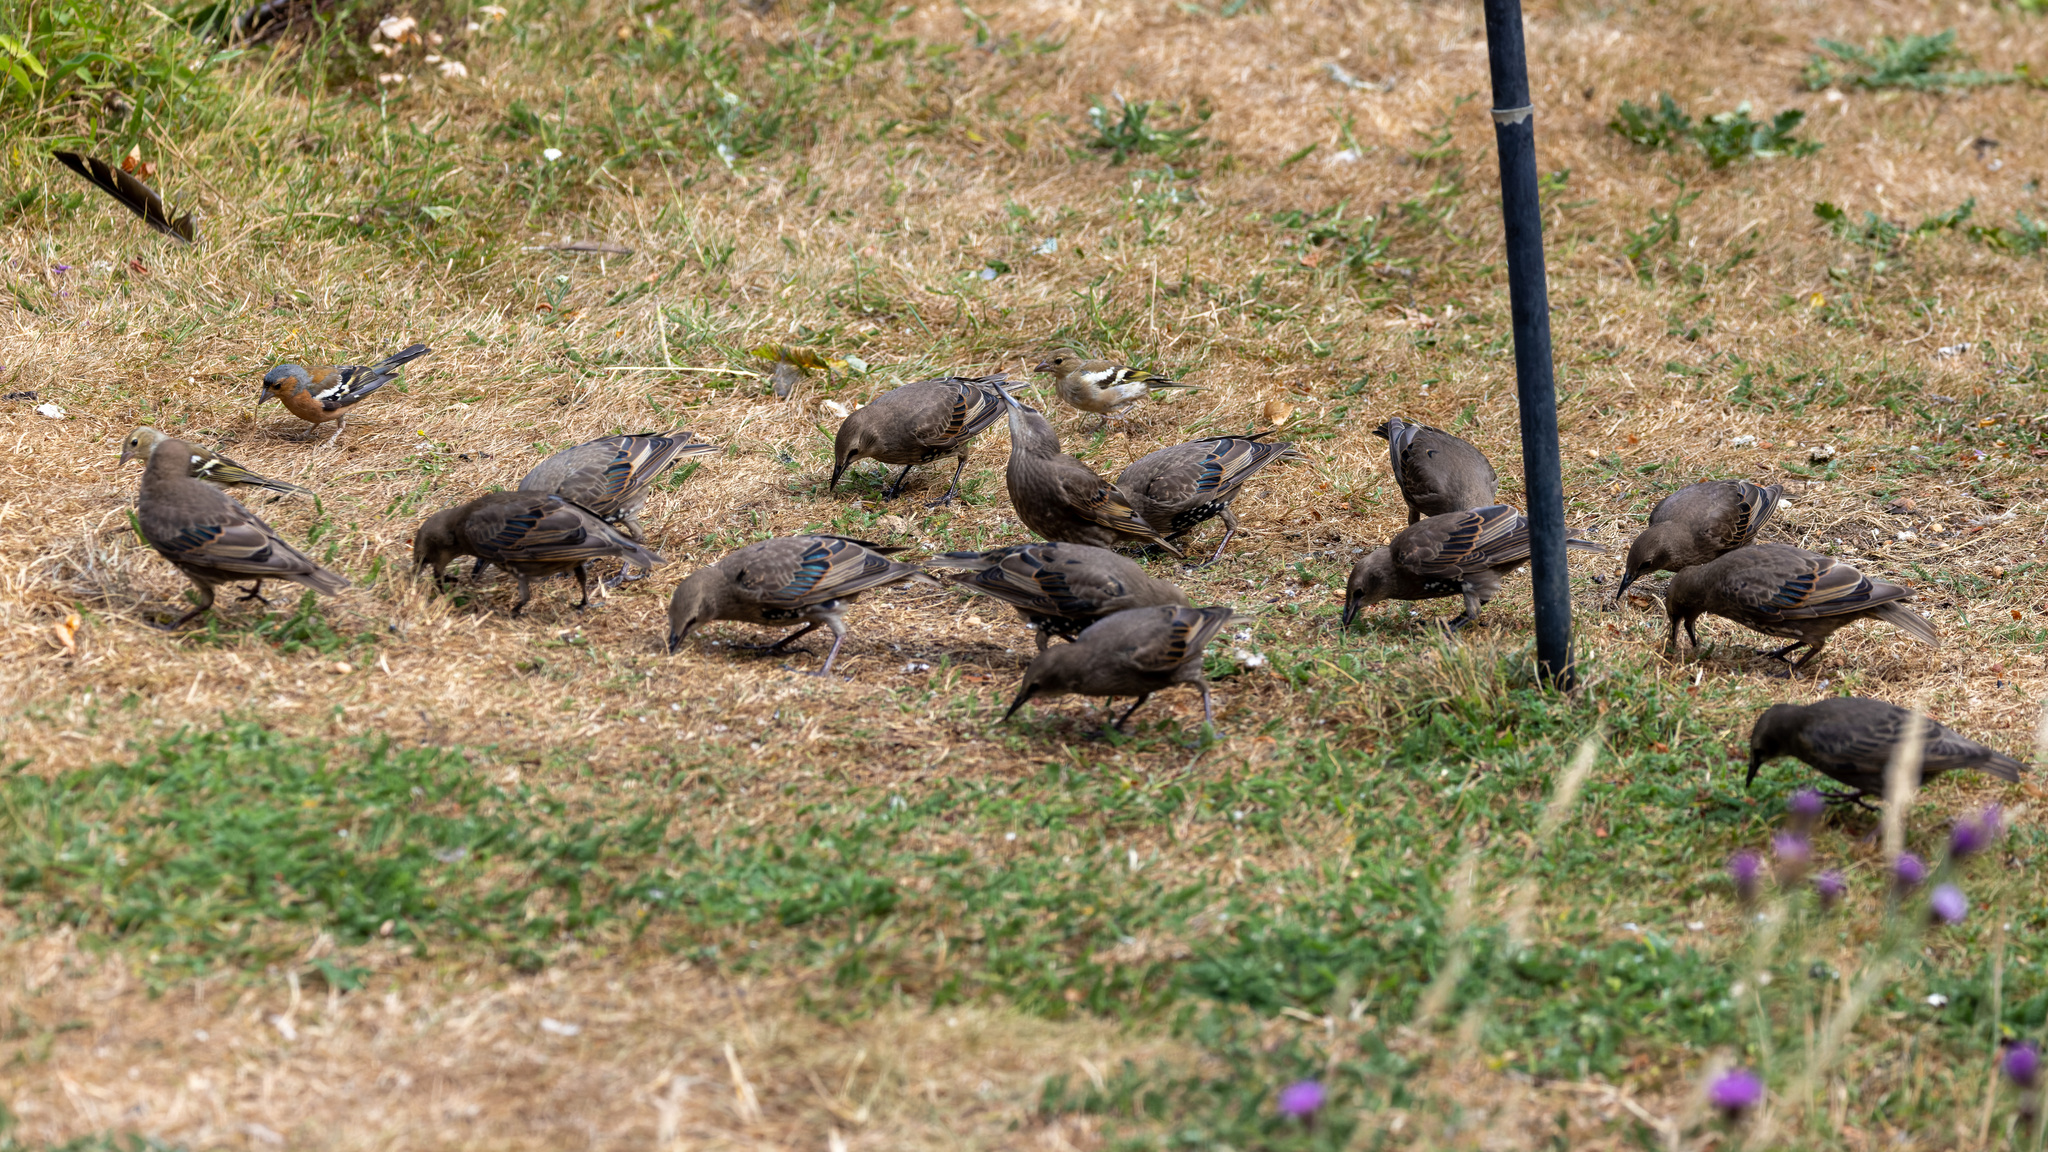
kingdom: Animalia
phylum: Chordata
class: Aves
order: Passeriformes
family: Sturnidae
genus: Sturnus
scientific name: Sturnus vulgaris
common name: Common starling
